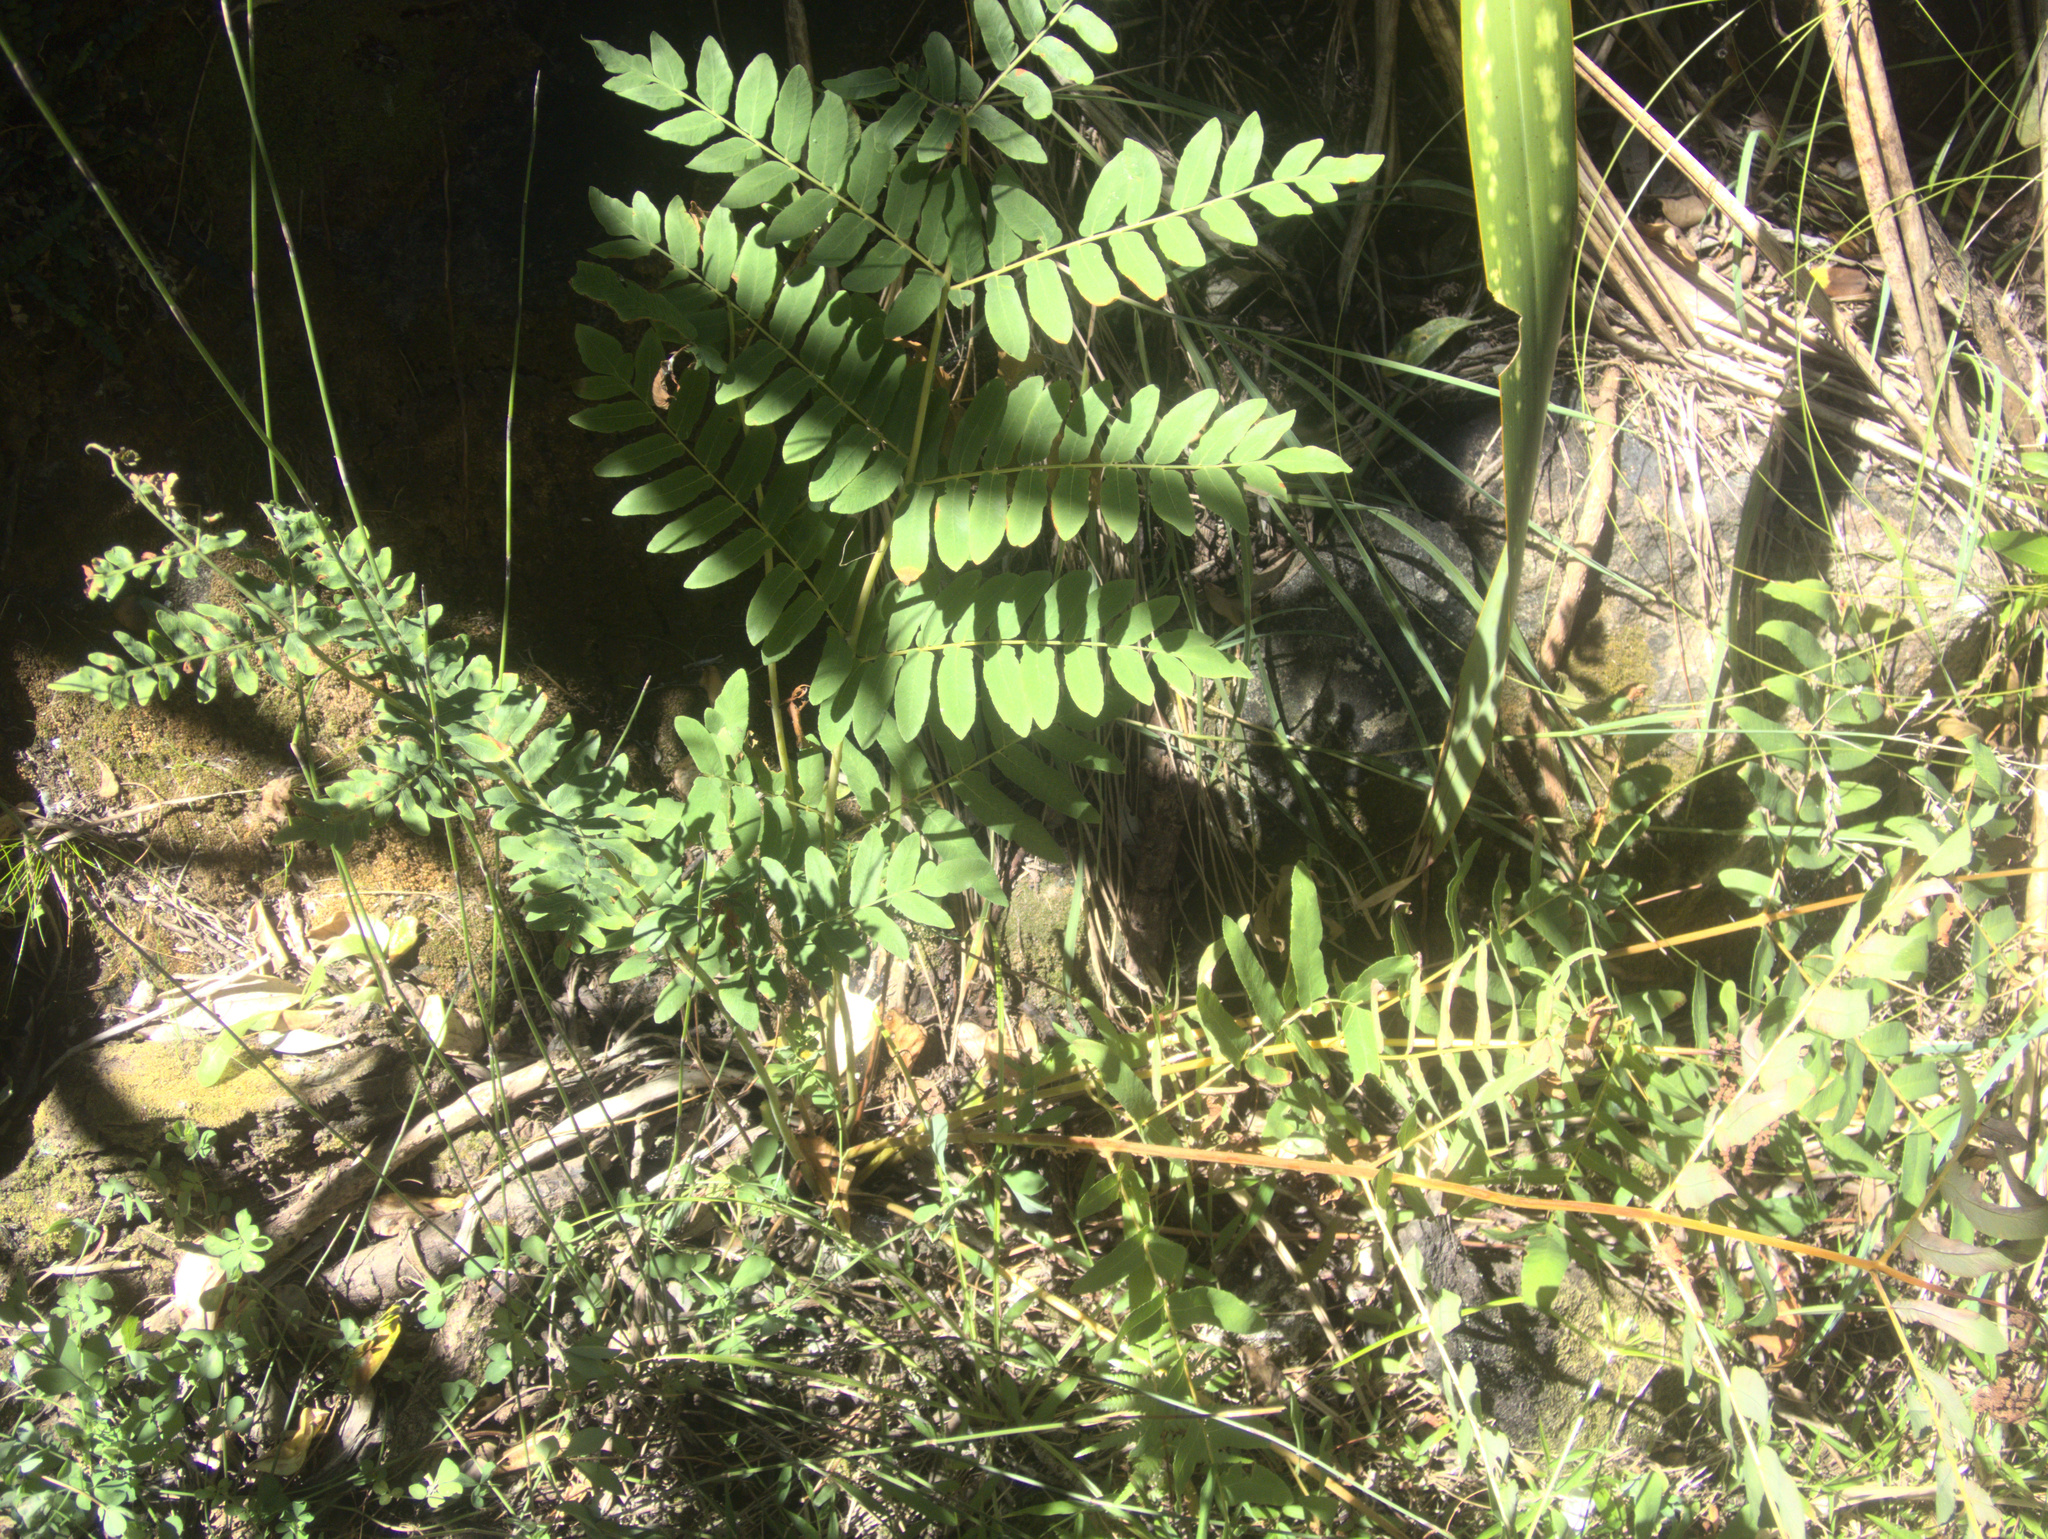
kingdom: Plantae
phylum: Tracheophyta
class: Polypodiopsida
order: Osmundales
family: Osmundaceae
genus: Osmunda
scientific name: Osmunda regalis
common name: Royal fern
